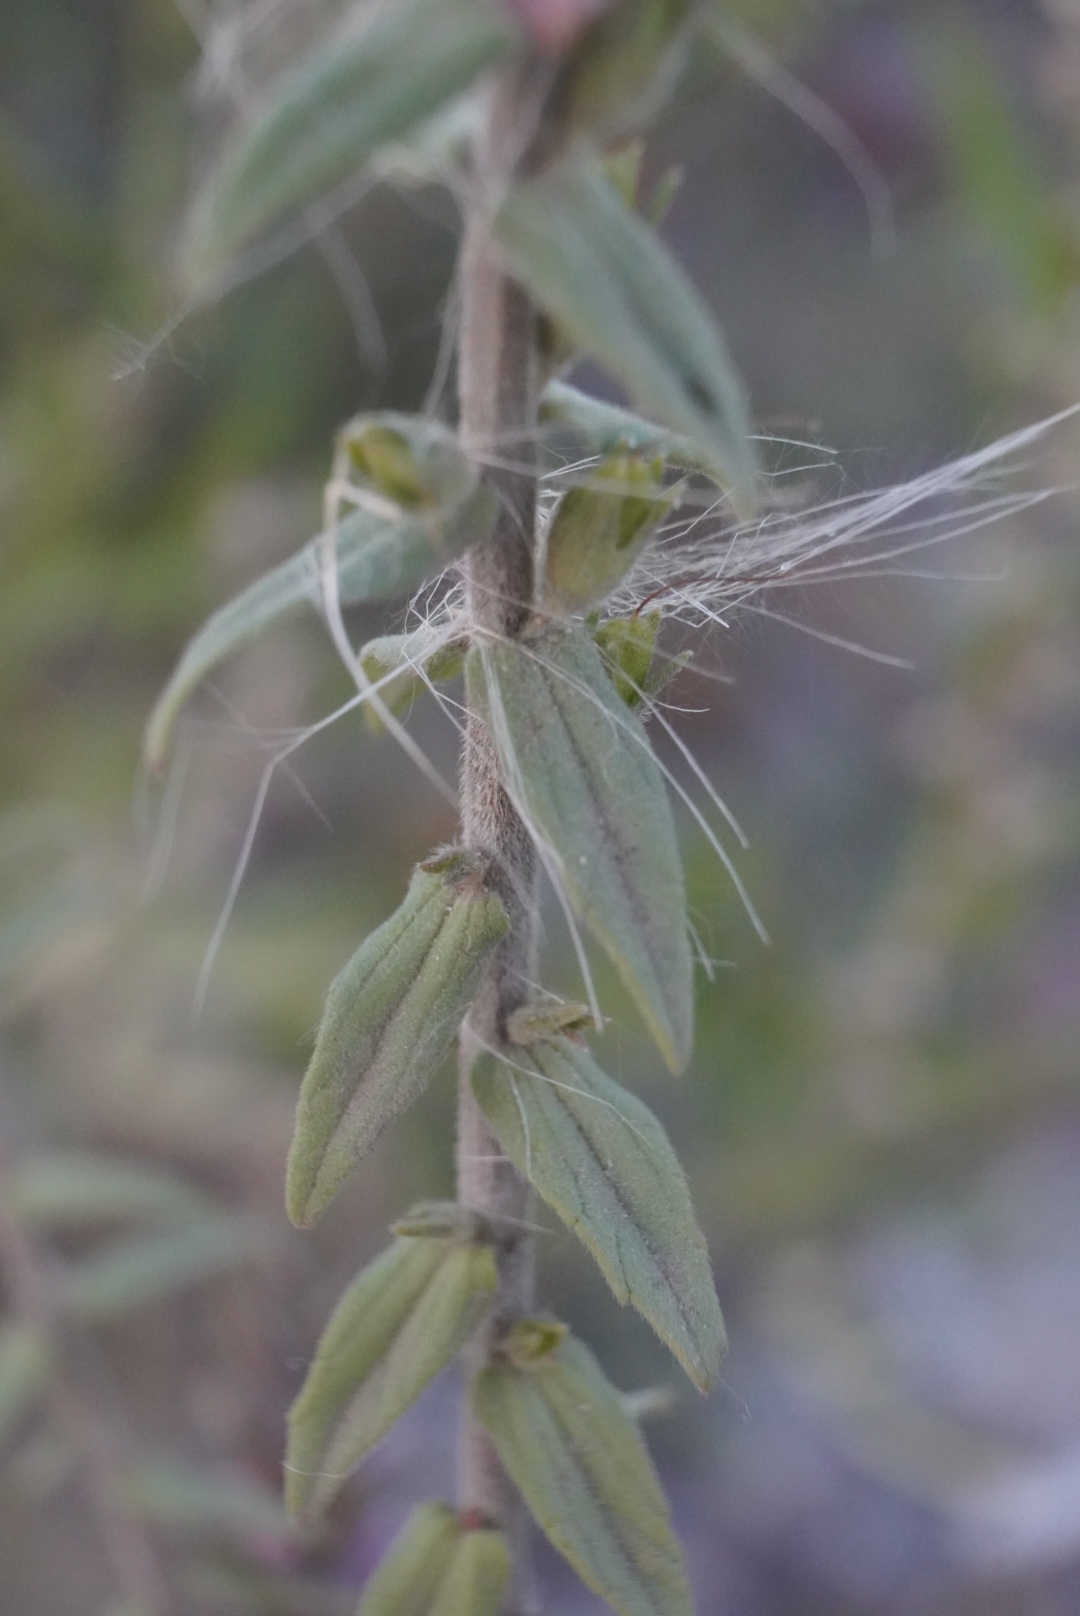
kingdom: Plantae
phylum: Tracheophyta
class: Magnoliopsida
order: Lamiales
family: Orobanchaceae
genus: Odontites
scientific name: Odontites vulgaris
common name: Broomrape
